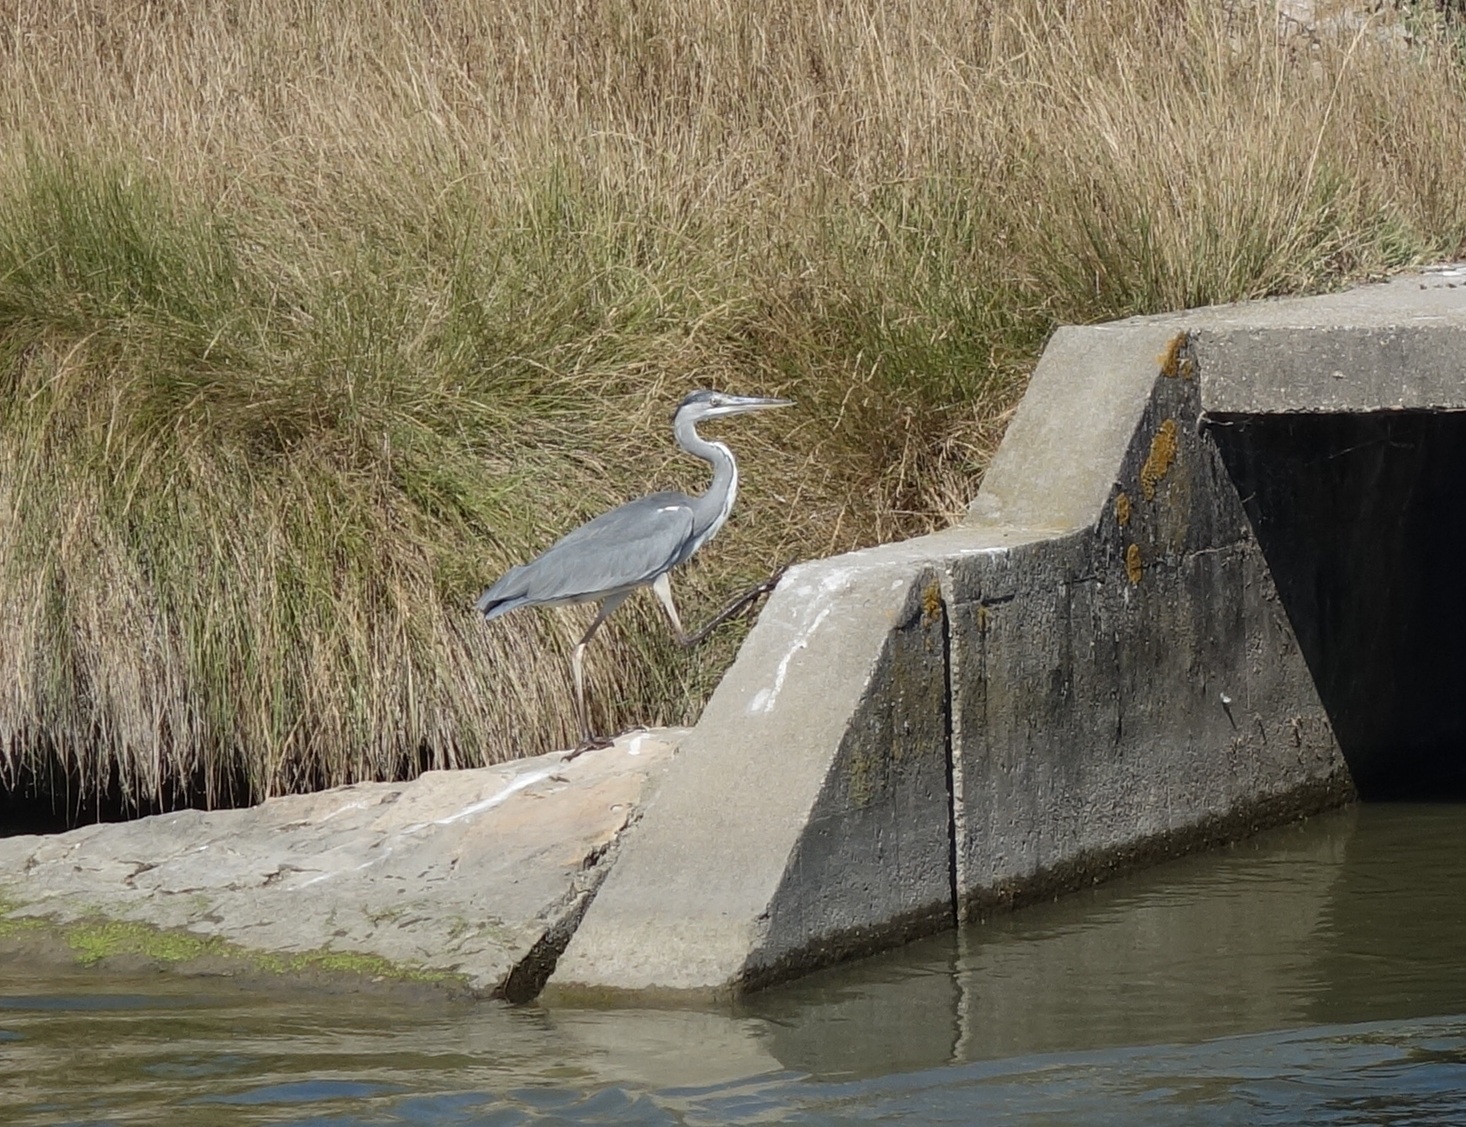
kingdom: Animalia
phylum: Chordata
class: Aves
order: Pelecaniformes
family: Ardeidae
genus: Ardea
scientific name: Ardea cinerea
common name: Grey heron
